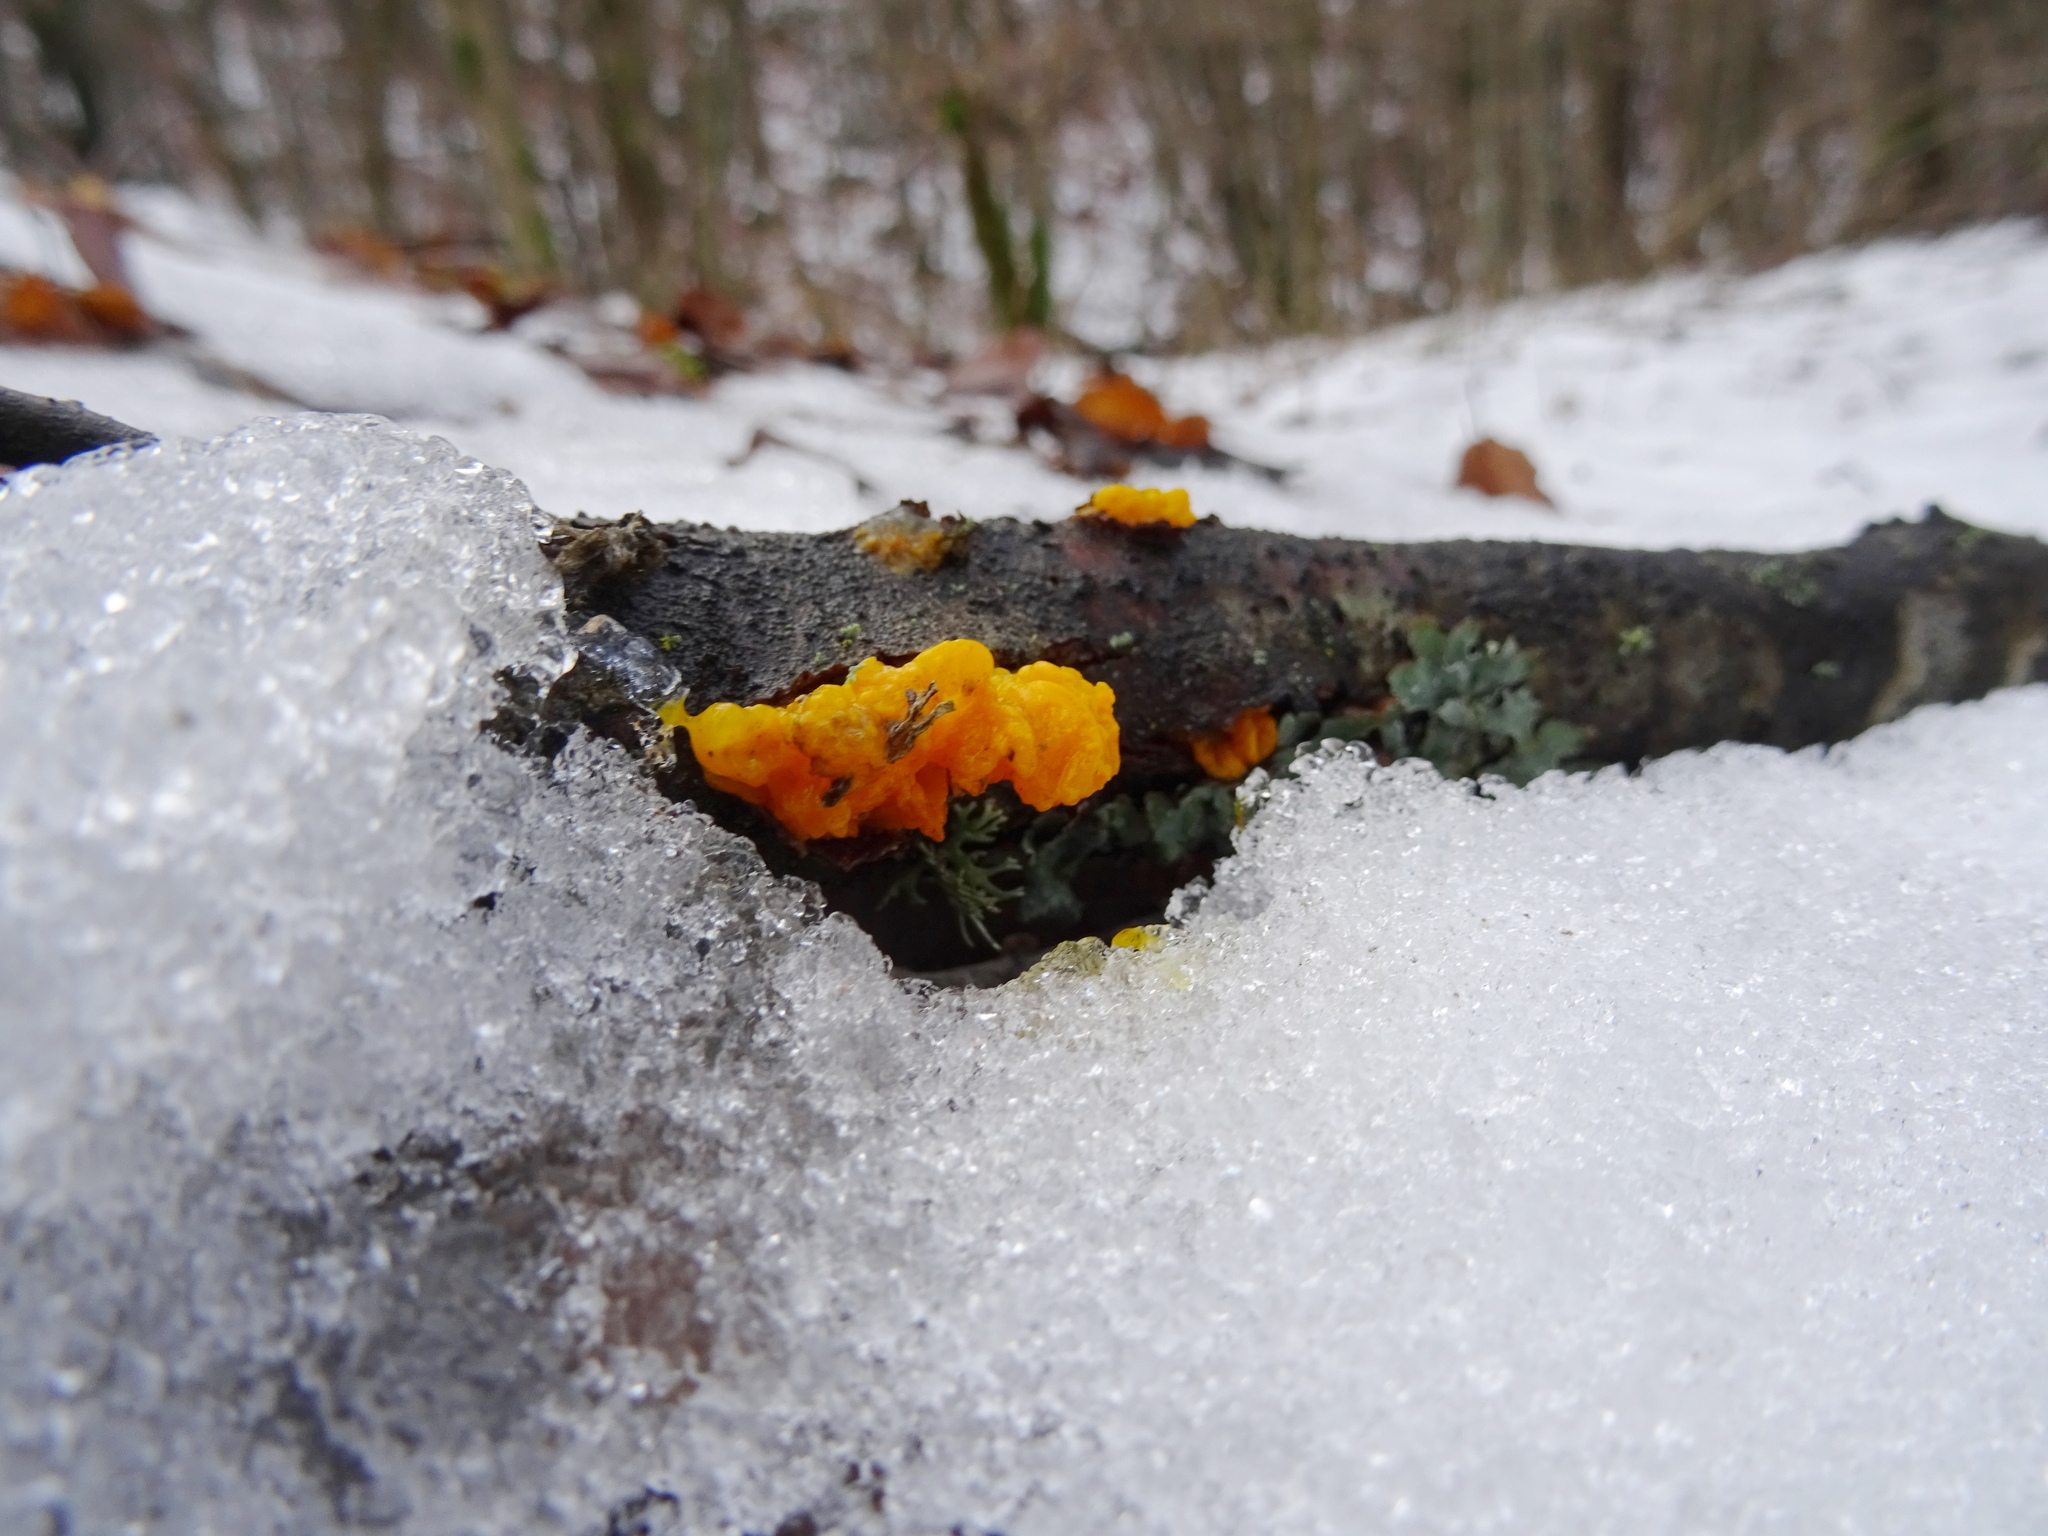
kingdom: Fungi
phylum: Basidiomycota
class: Tremellomycetes
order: Tremellales
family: Tremellaceae
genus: Tremella
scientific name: Tremella mesenterica
